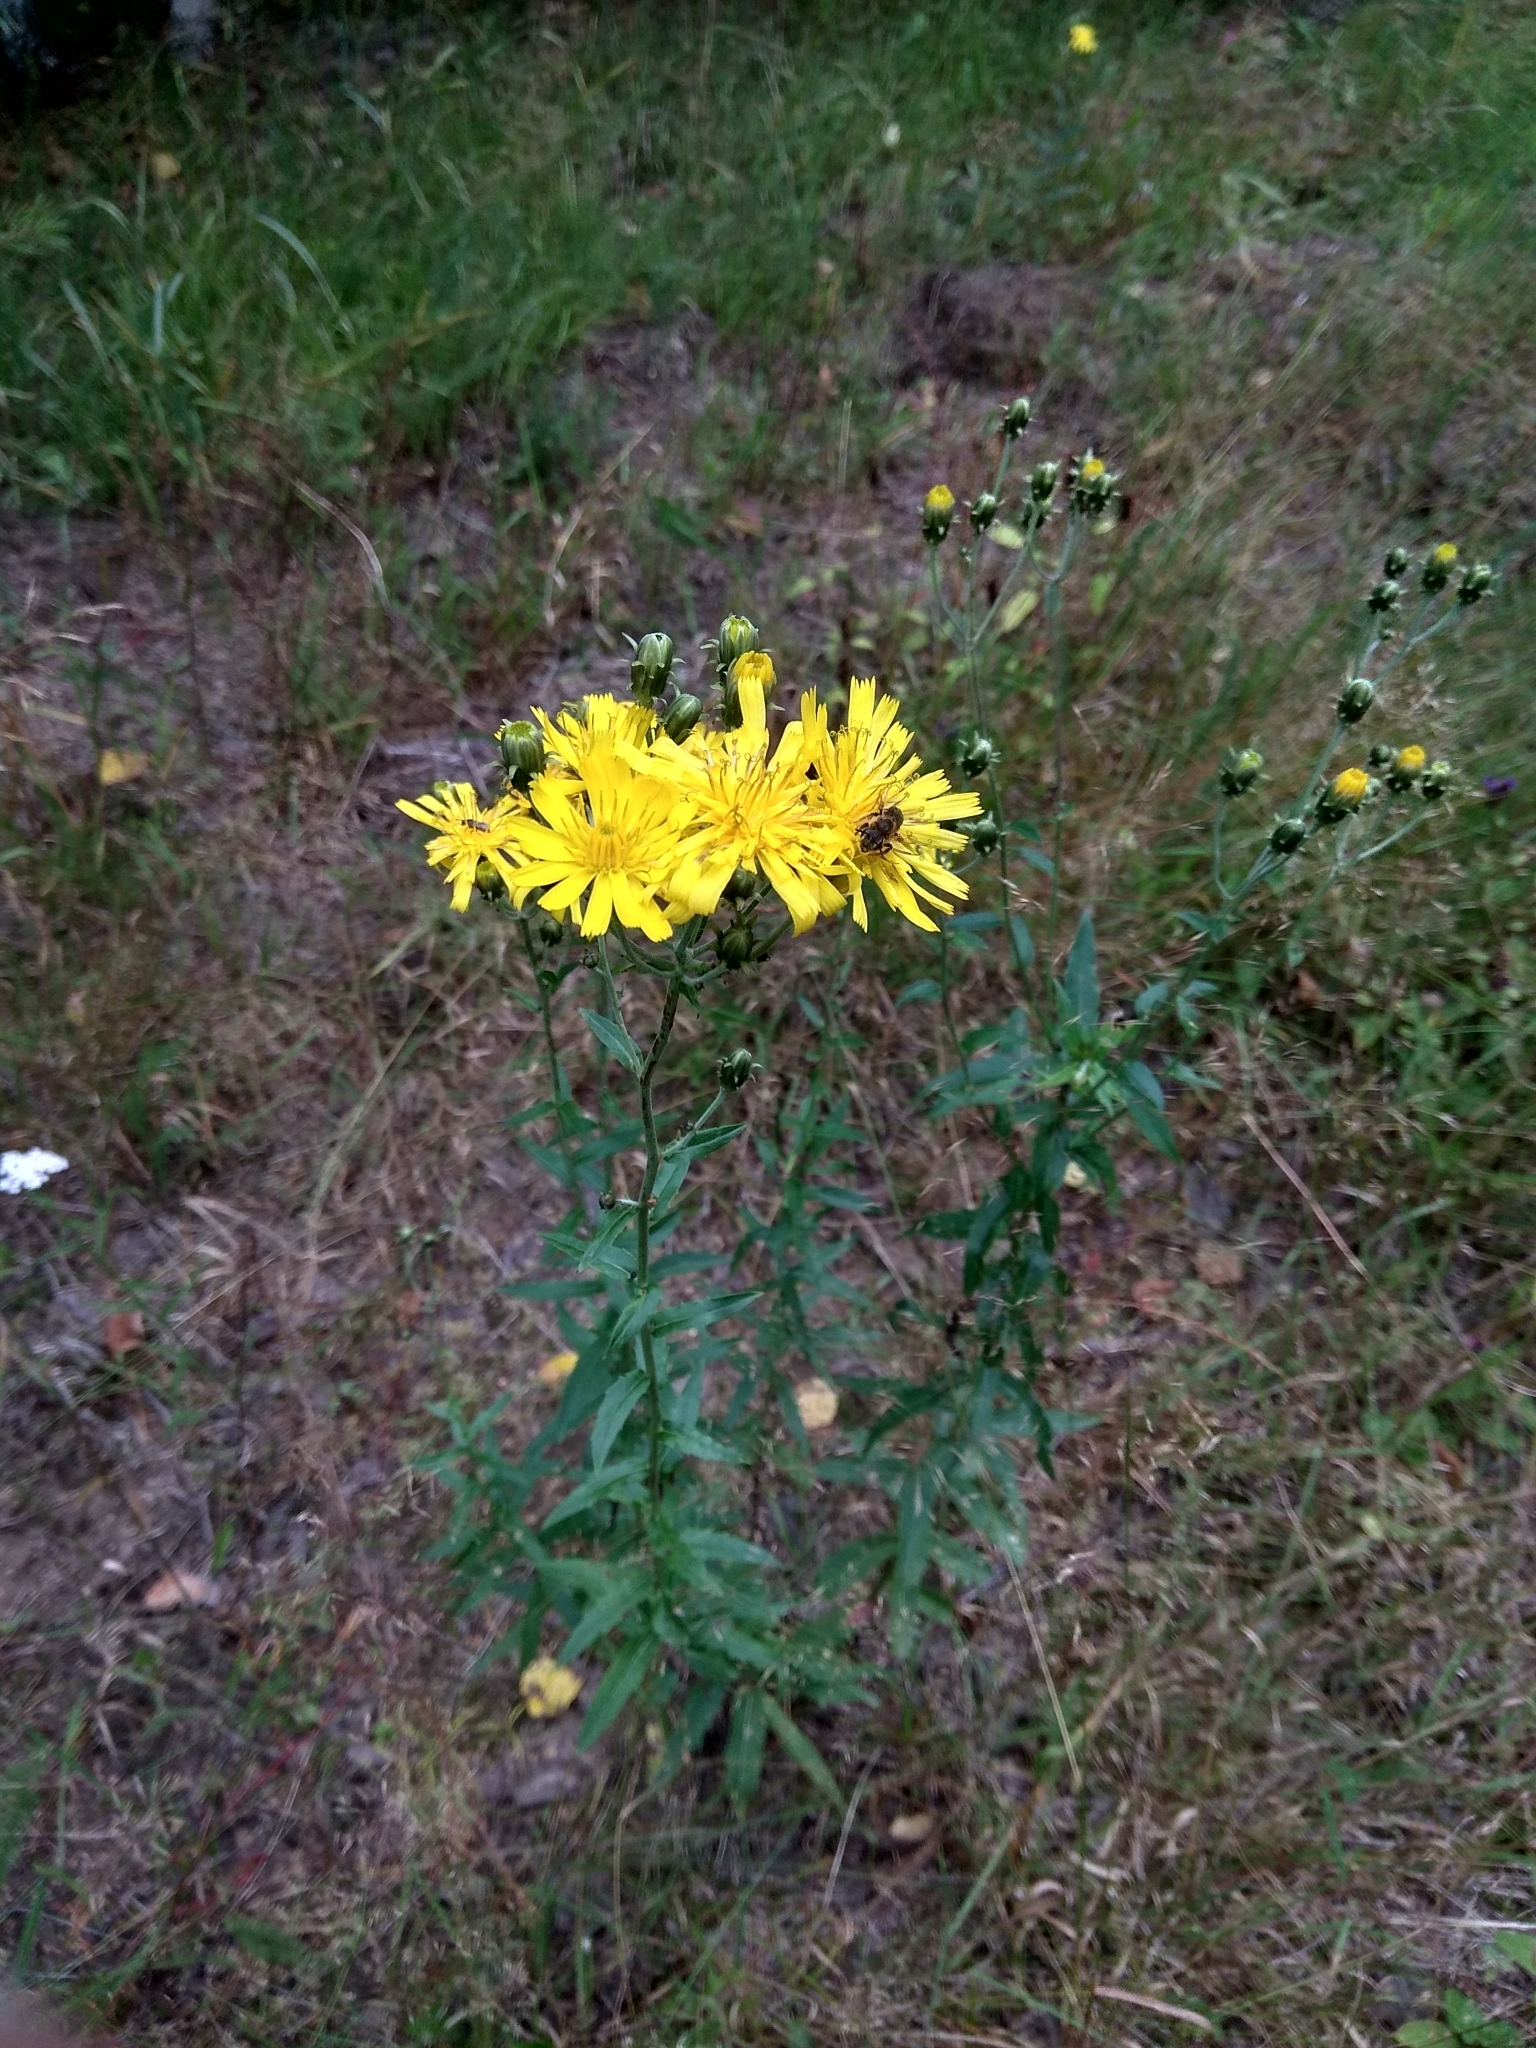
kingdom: Plantae
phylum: Tracheophyta
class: Magnoliopsida
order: Asterales
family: Asteraceae
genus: Hieracium
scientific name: Hieracium umbellatum
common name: Northern hawkweed
